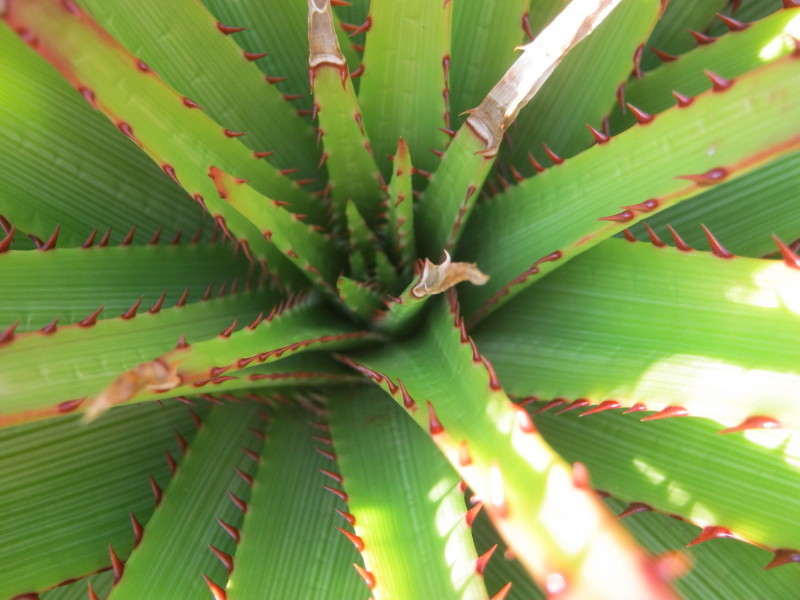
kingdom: Plantae
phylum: Tracheophyta
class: Liliopsida
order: Asparagales
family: Asphodelaceae
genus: Aloe
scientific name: Aloe lineata
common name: Lined red-spined aloe
